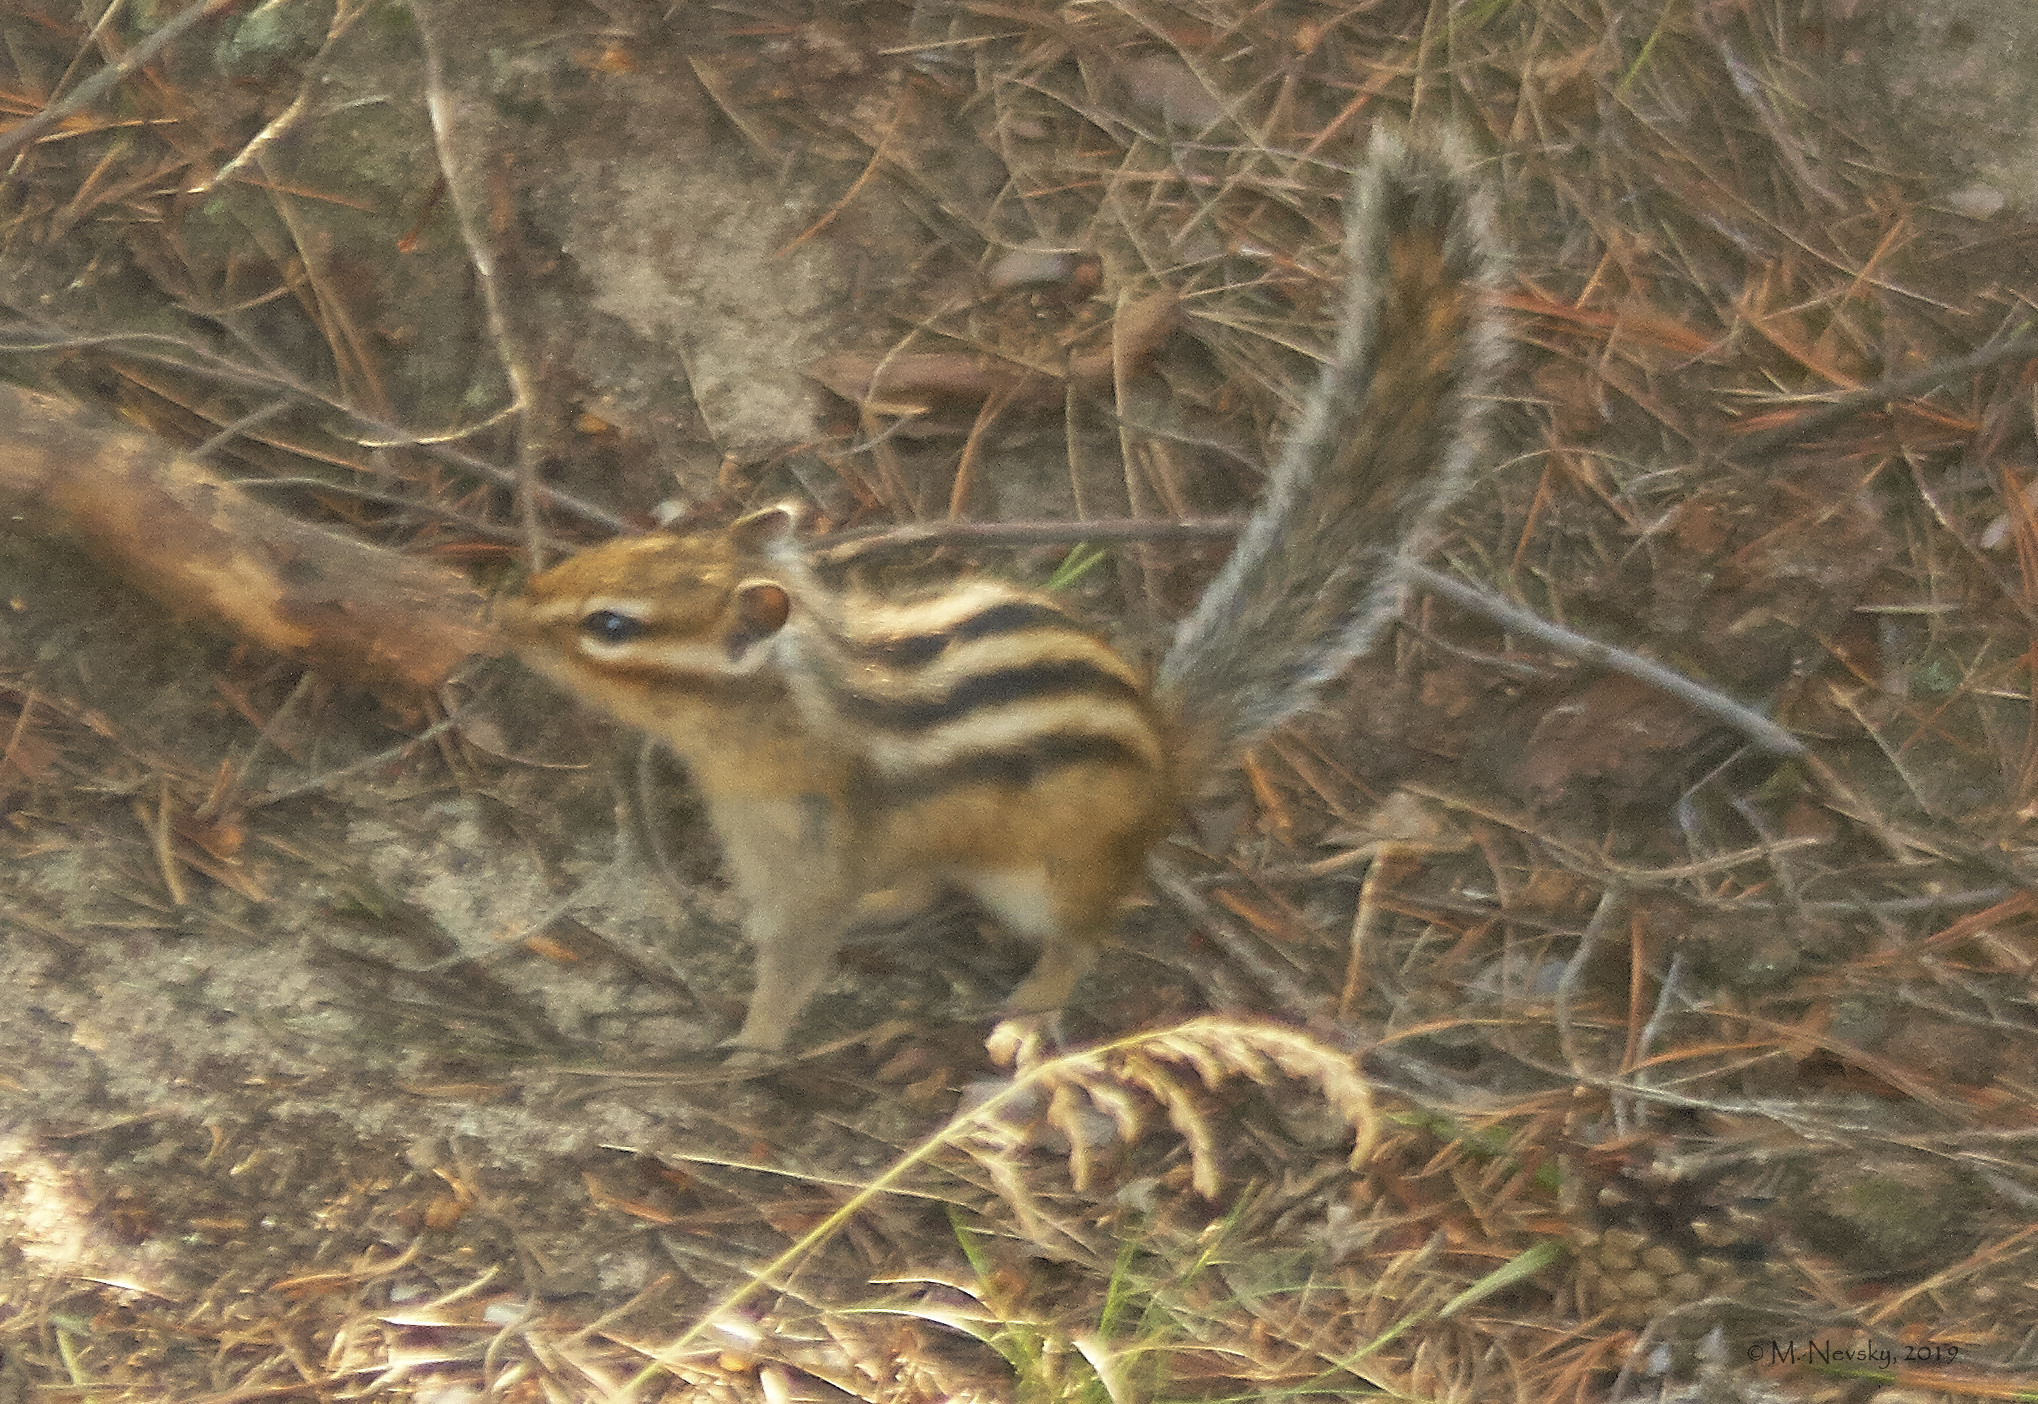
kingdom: Animalia
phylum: Chordata
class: Mammalia
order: Rodentia
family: Sciuridae
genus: Tamias
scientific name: Tamias sibiricus
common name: Siberian chipmunk
